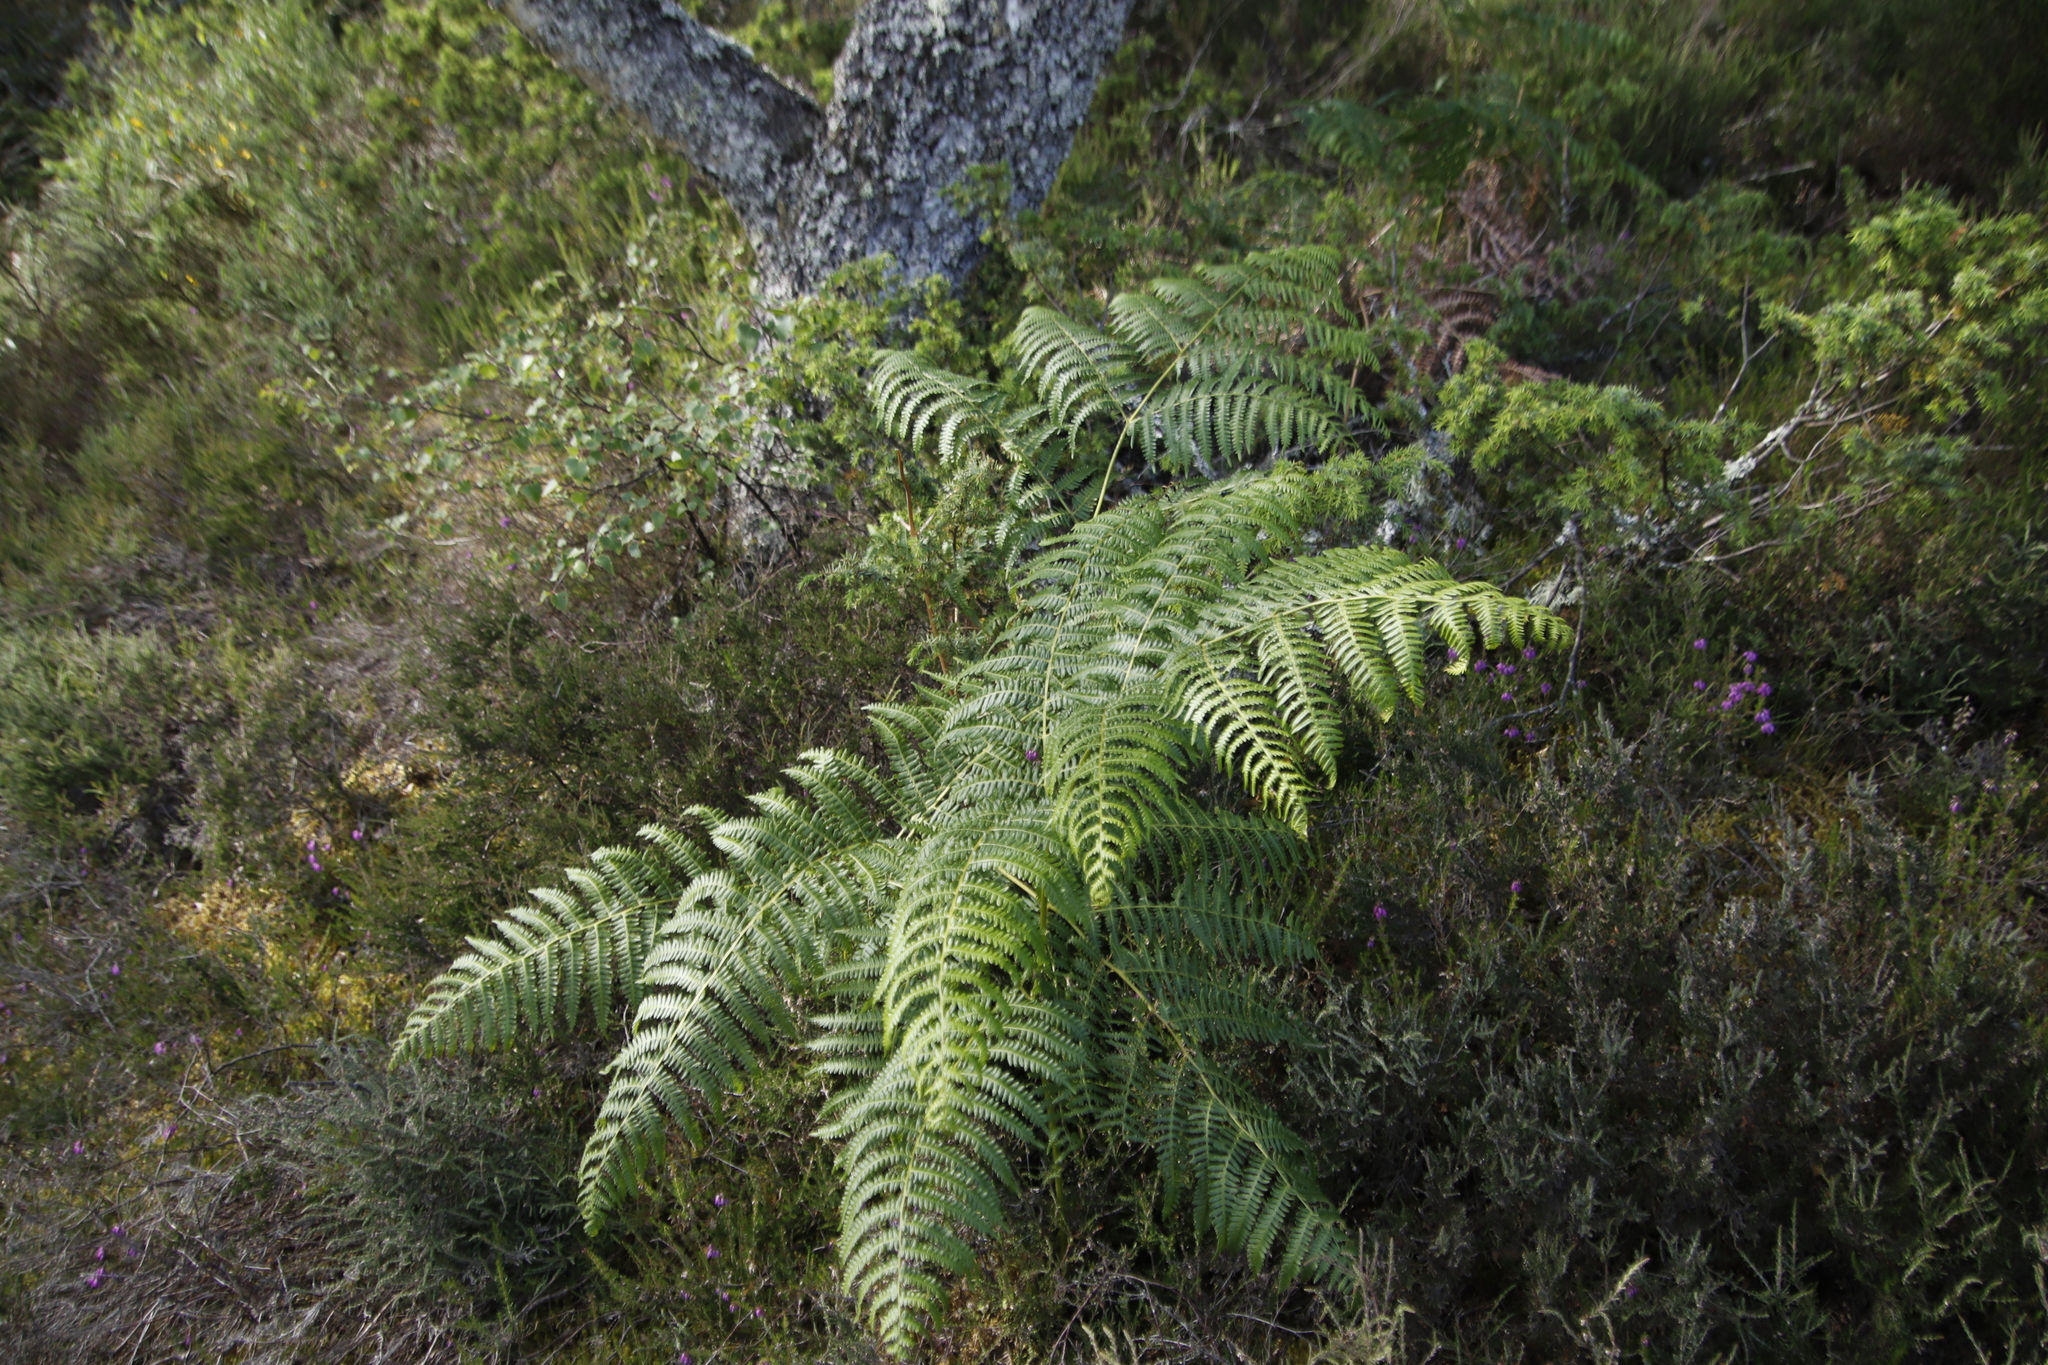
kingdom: Plantae
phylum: Tracheophyta
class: Polypodiopsida
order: Polypodiales
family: Dennstaedtiaceae
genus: Pteridium
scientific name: Pteridium aquilinum
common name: Bracken
